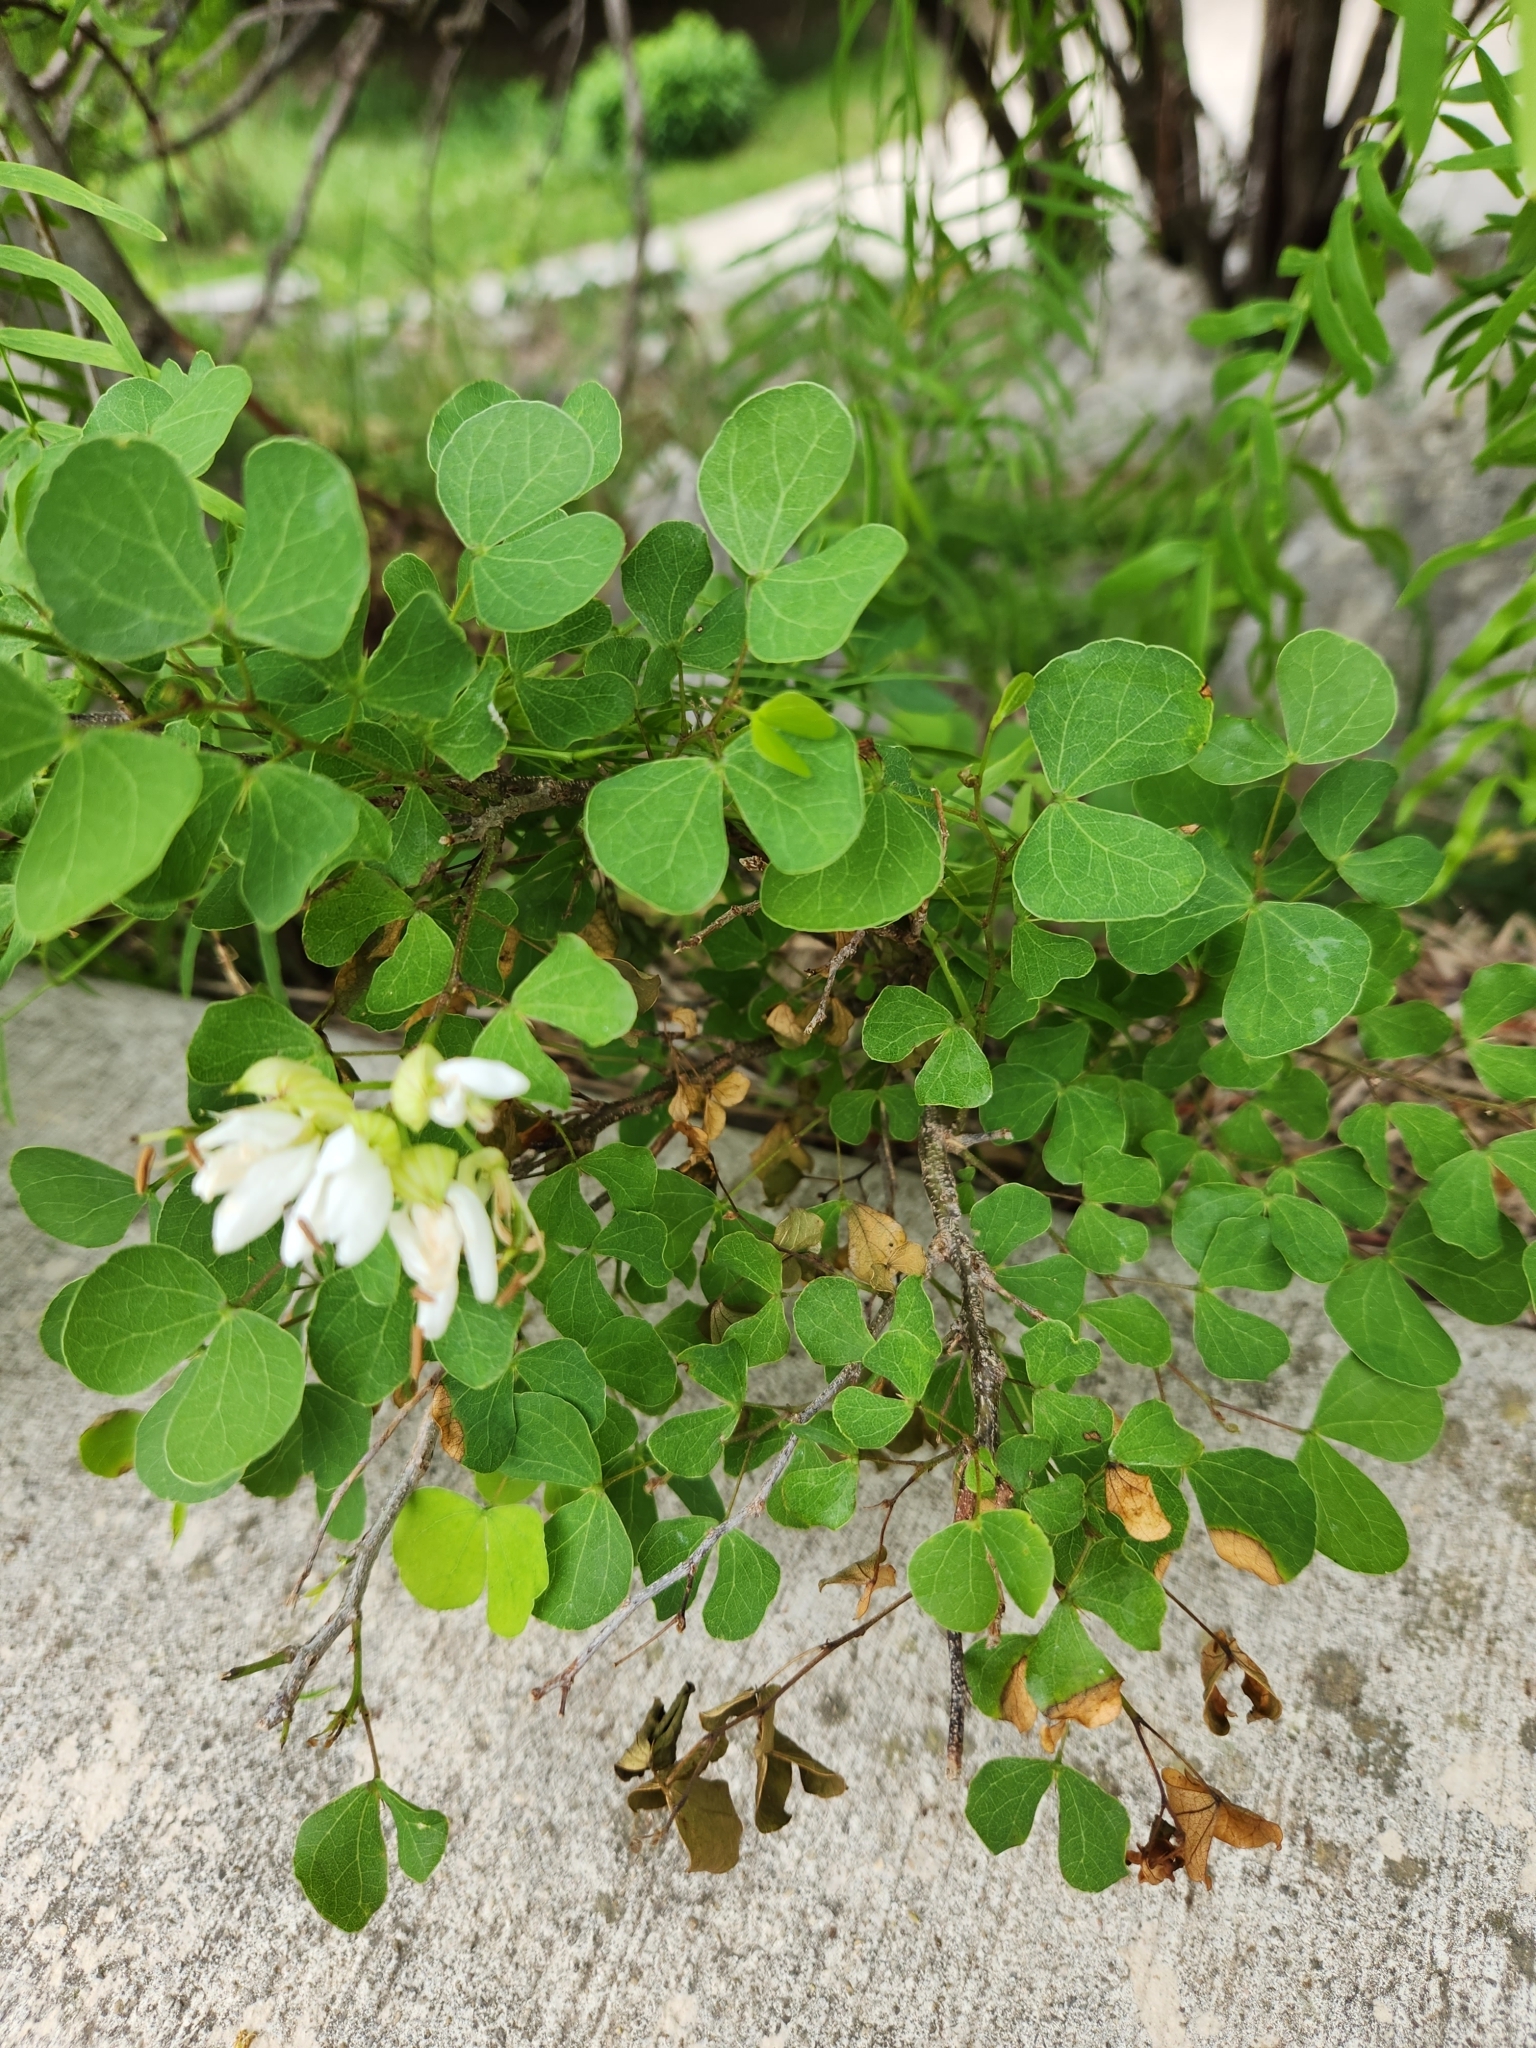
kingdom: Plantae
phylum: Tracheophyta
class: Magnoliopsida
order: Fabales
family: Fabaceae
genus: Bauhinia
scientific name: Bauhinia lunarioides
